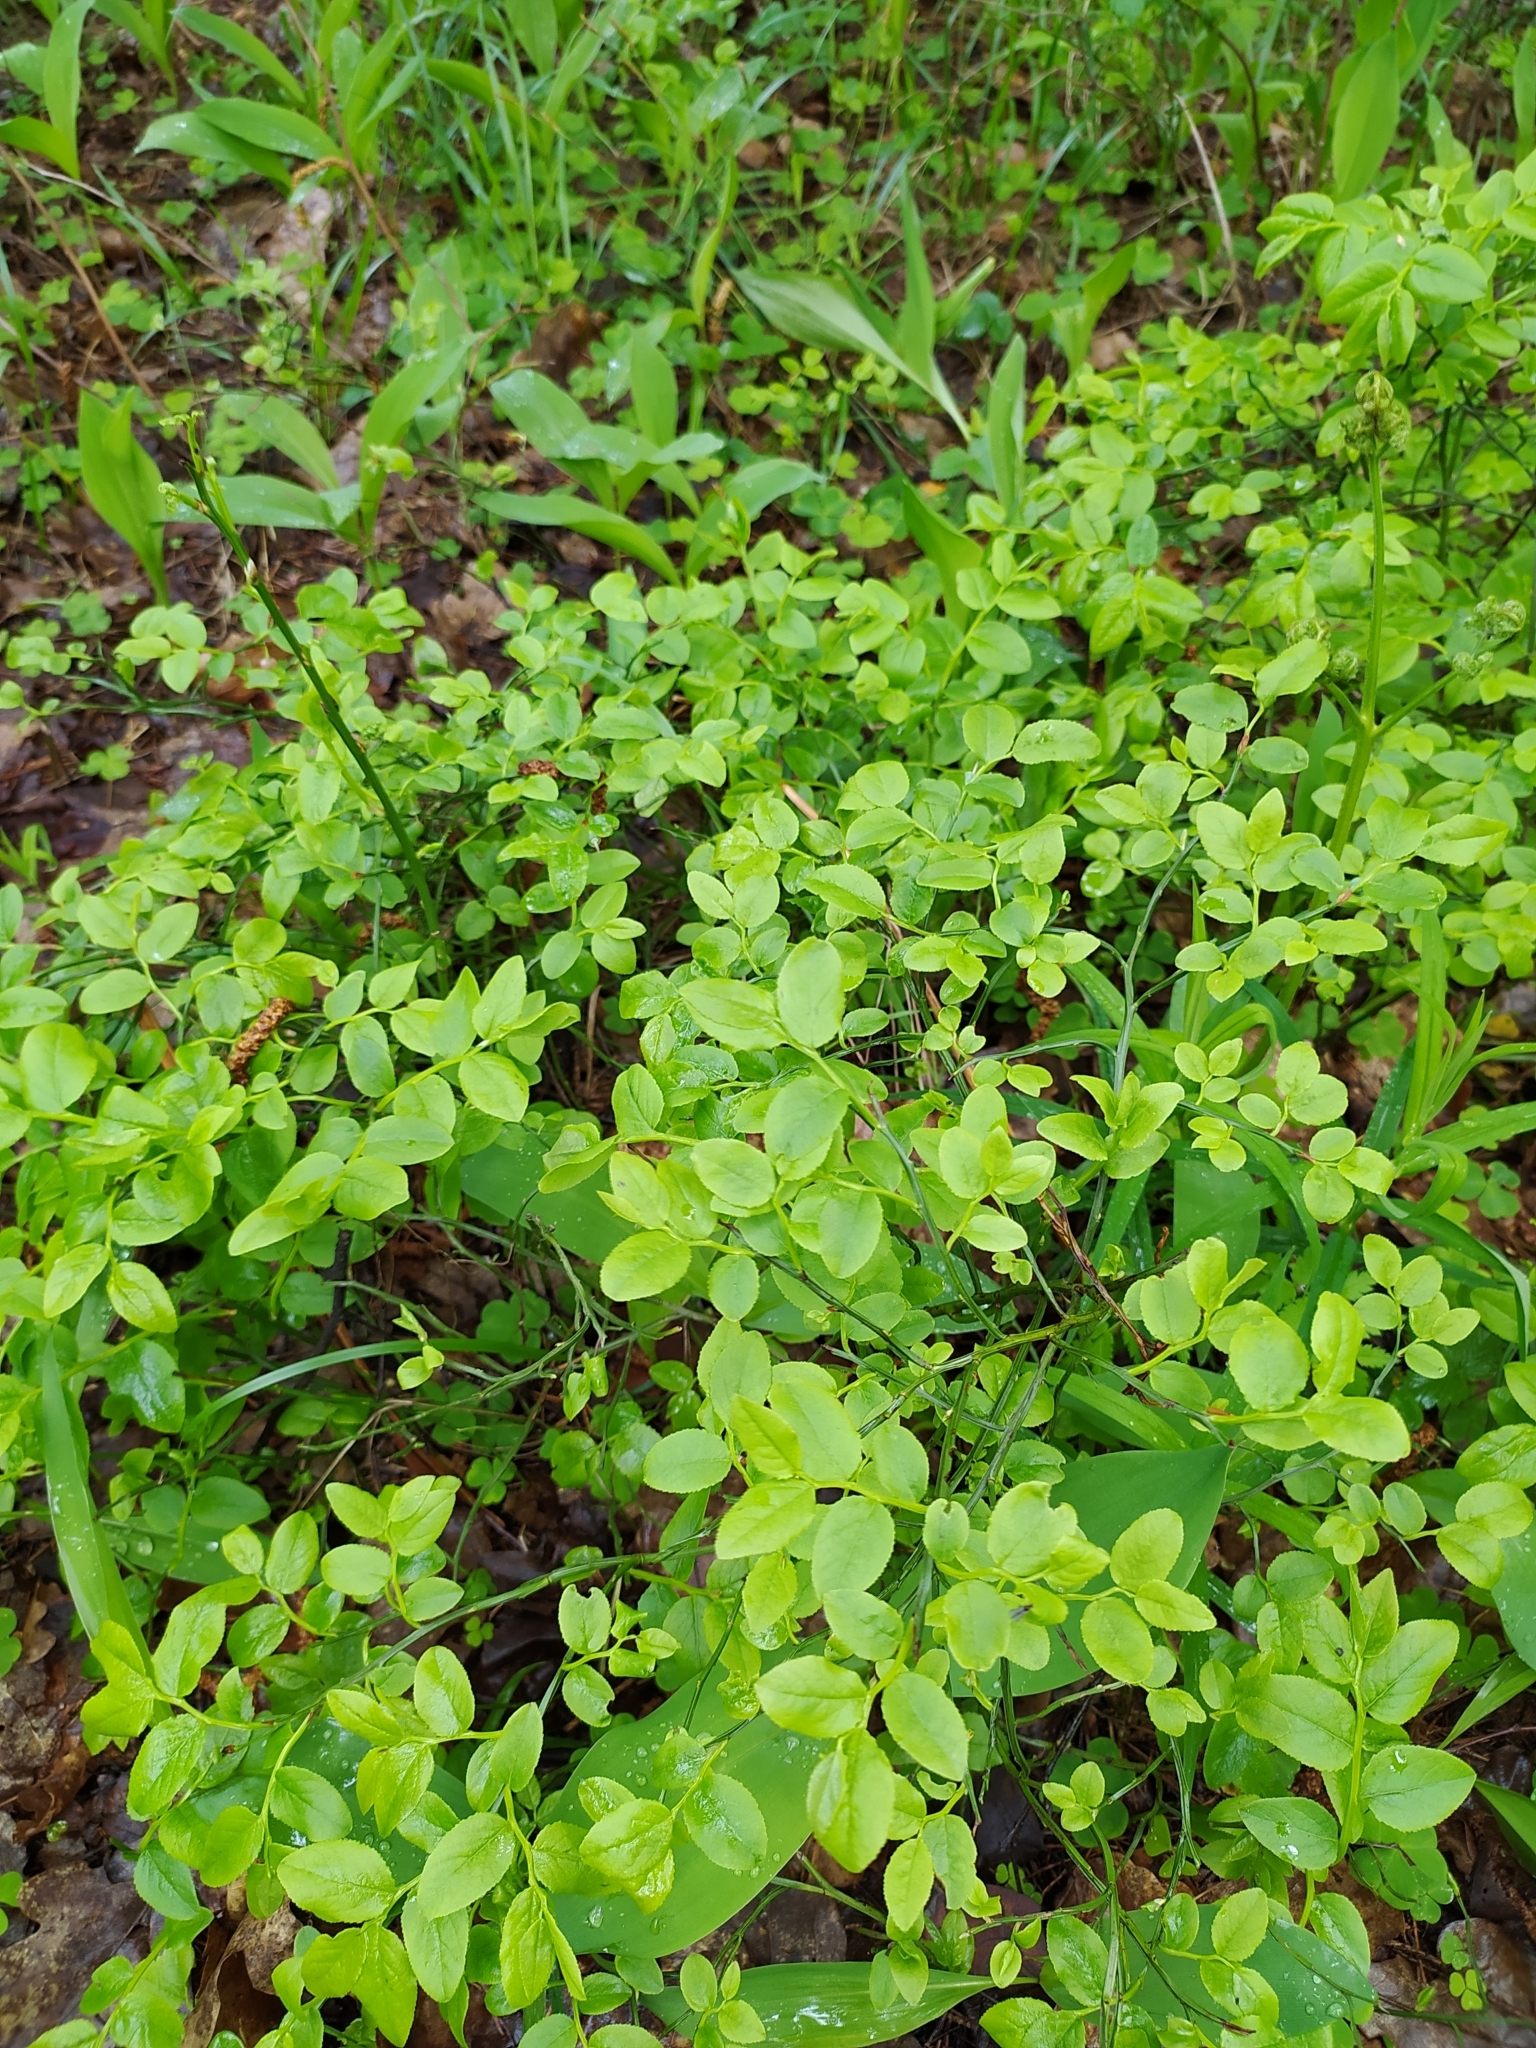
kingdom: Plantae
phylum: Tracheophyta
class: Magnoliopsida
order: Ericales
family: Ericaceae
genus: Vaccinium
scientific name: Vaccinium myrtillus
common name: Bilberry
